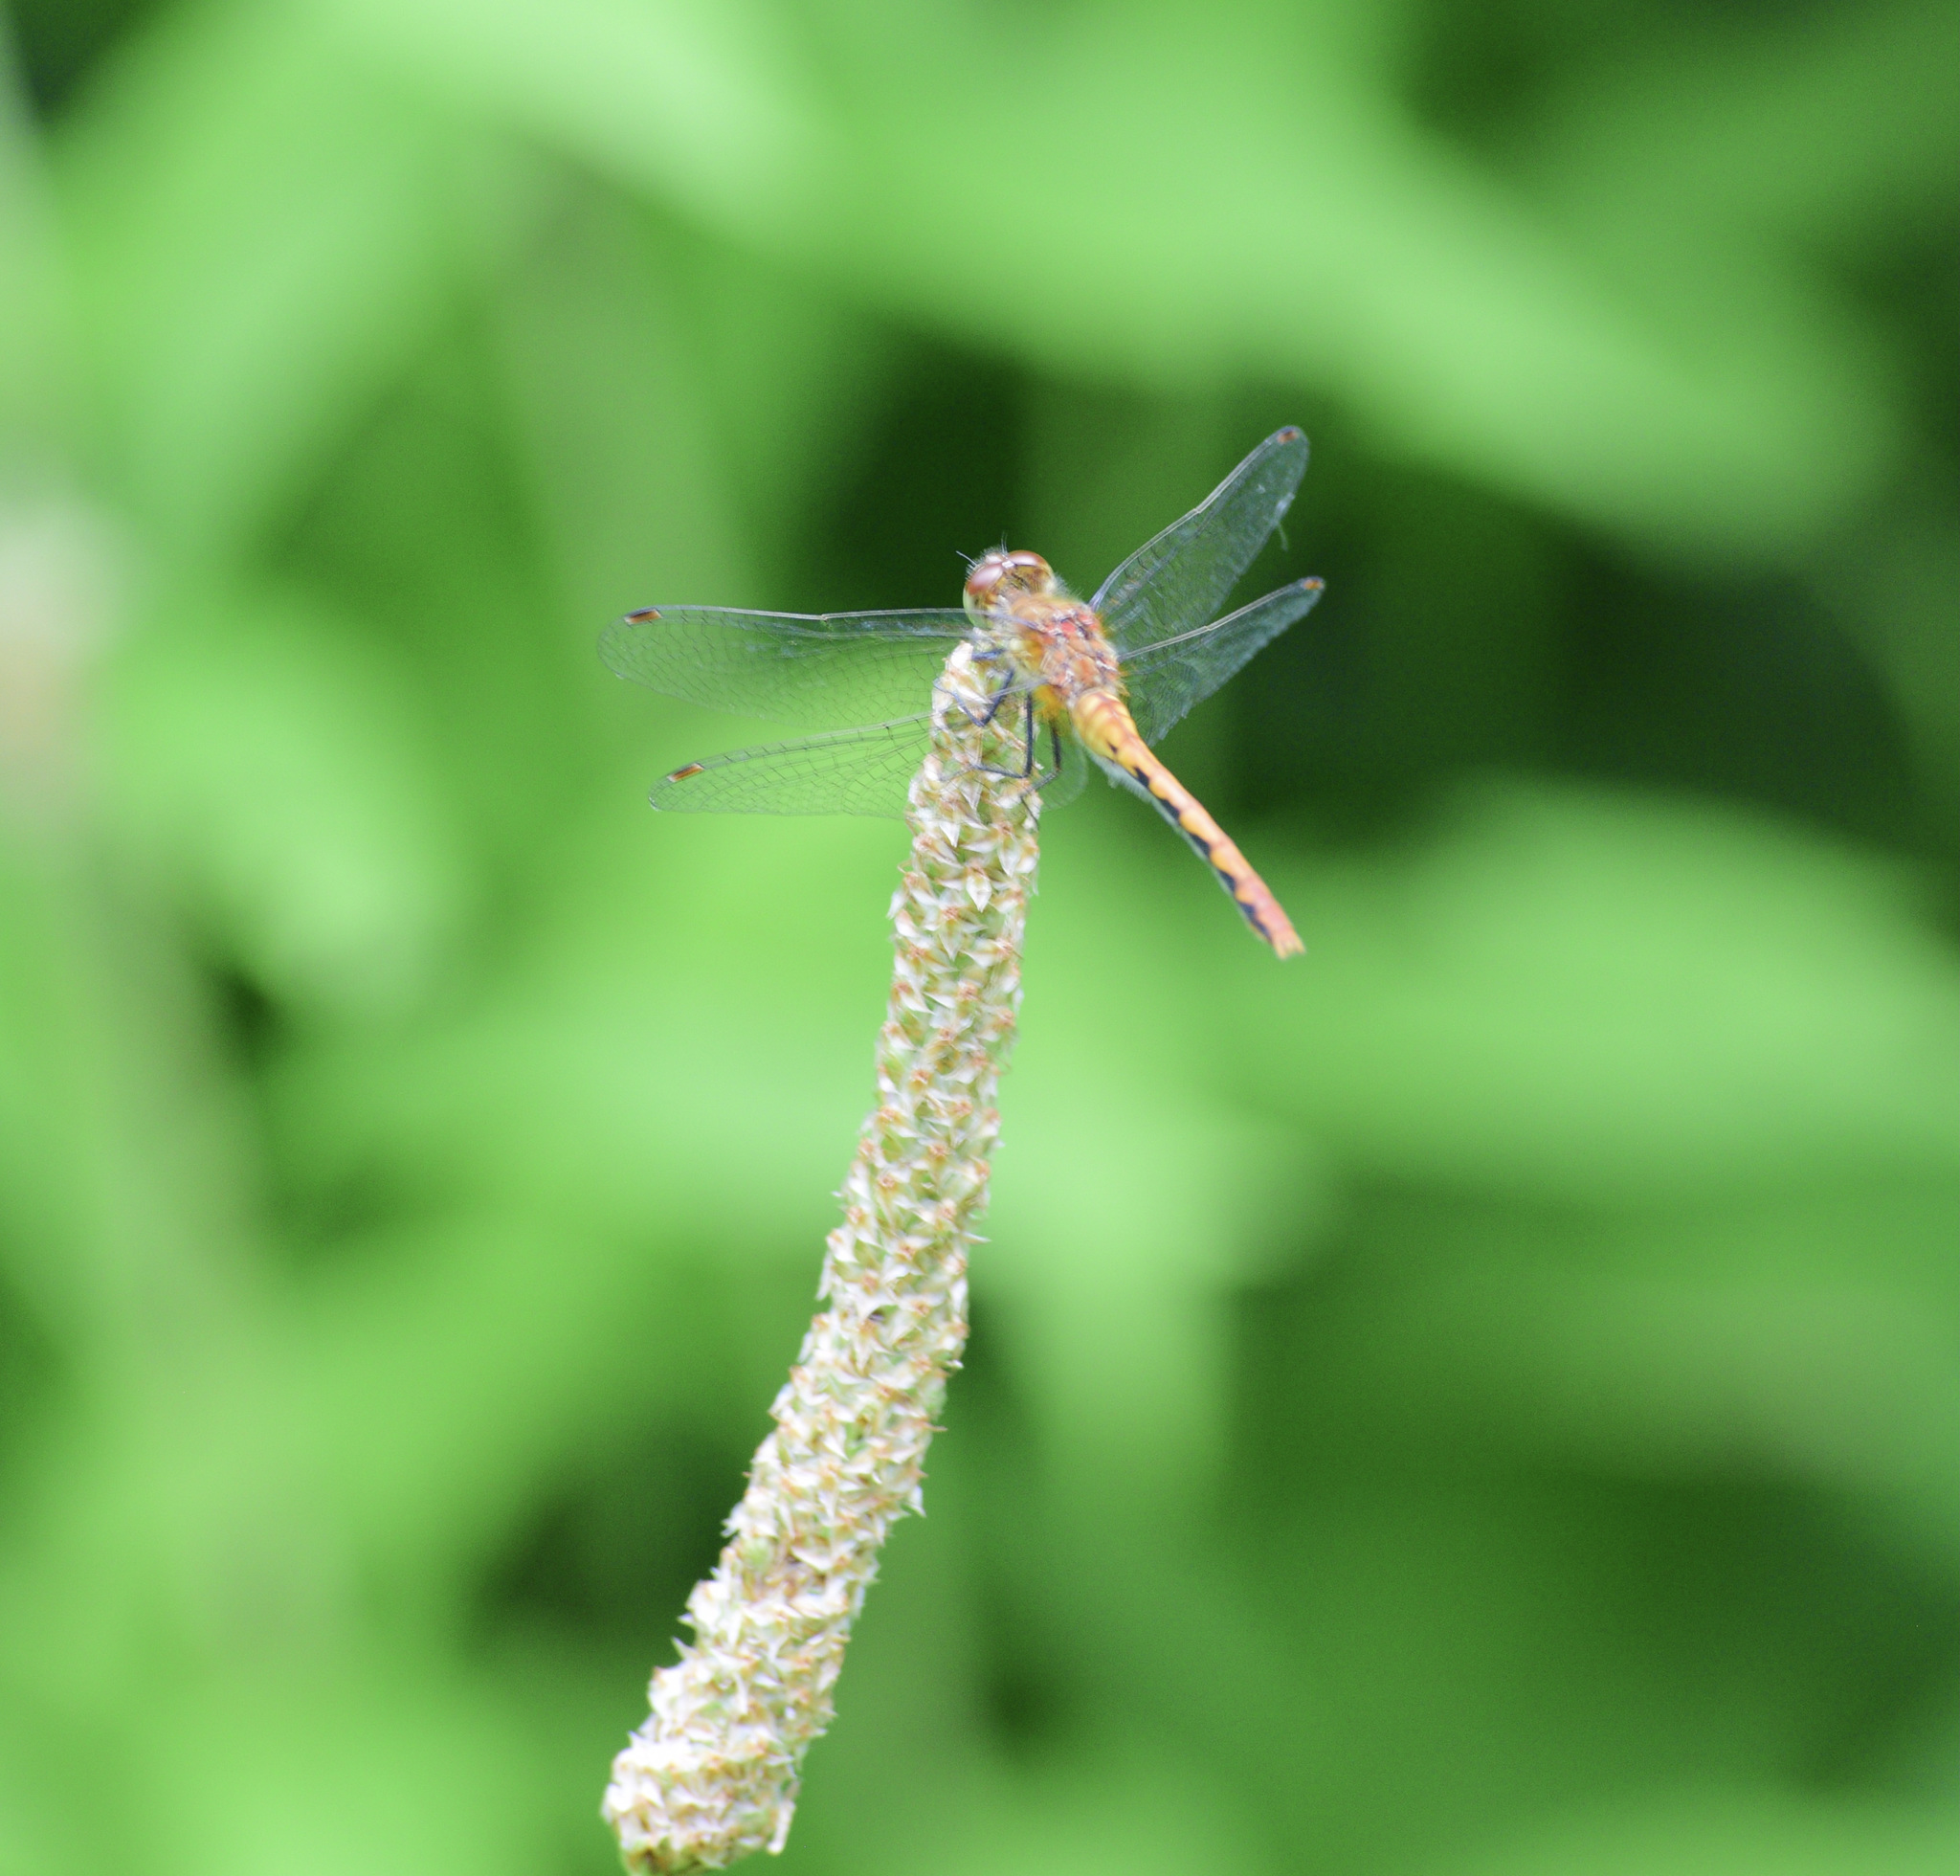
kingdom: Animalia
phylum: Arthropoda
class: Insecta
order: Odonata
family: Libellulidae
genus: Sympetrum
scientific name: Sympetrum
